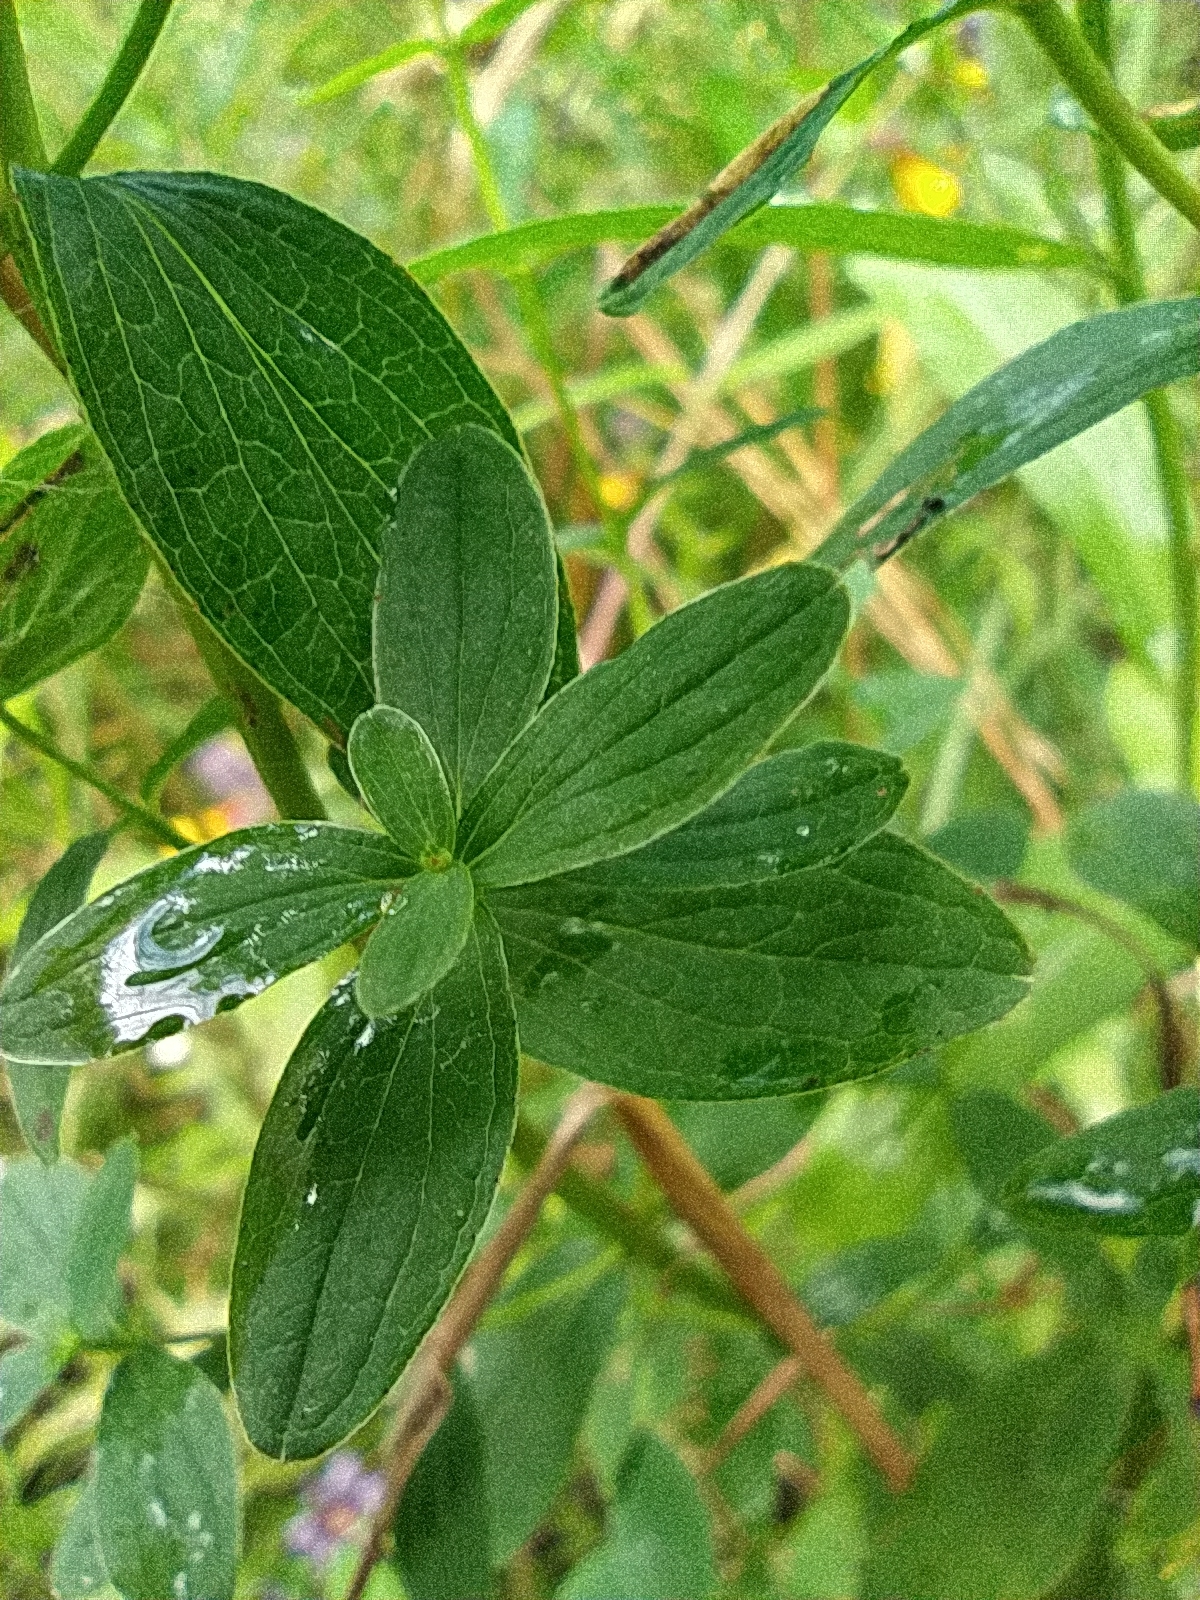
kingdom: Plantae
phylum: Tracheophyta
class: Magnoliopsida
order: Malpighiales
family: Hypericaceae
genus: Hypericum
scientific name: Hypericum maculatum
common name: Imperforate st. john's-wort
